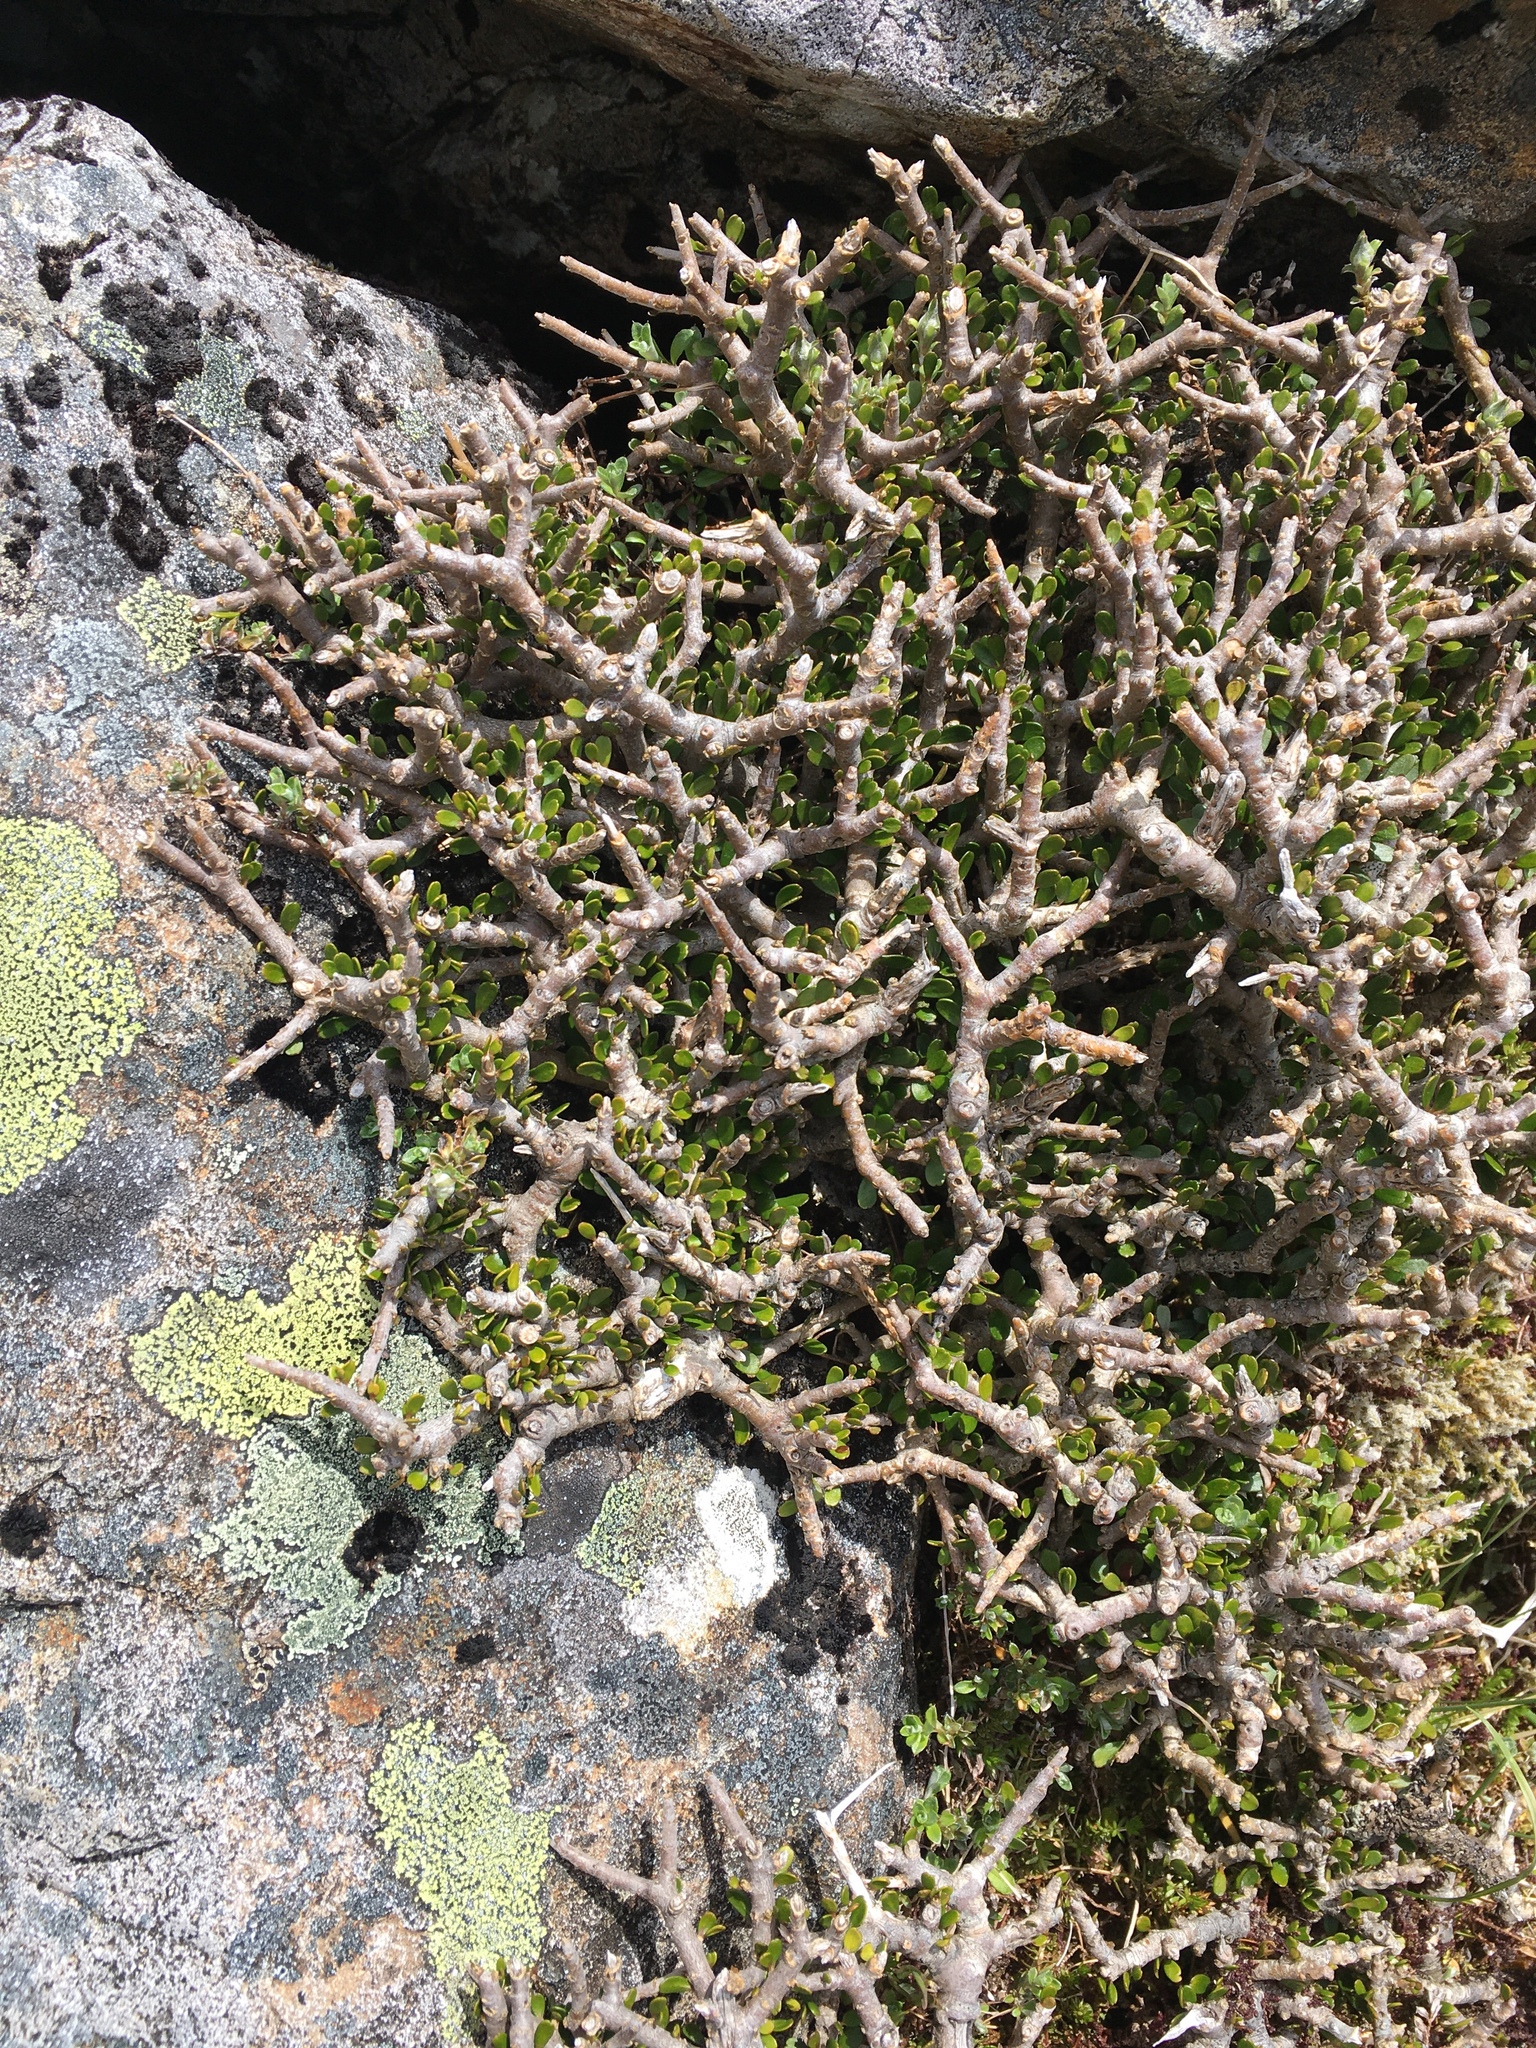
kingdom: Plantae
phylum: Tracheophyta
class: Magnoliopsida
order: Malpighiales
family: Violaceae
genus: Melicytus
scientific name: Melicytus alpinus
